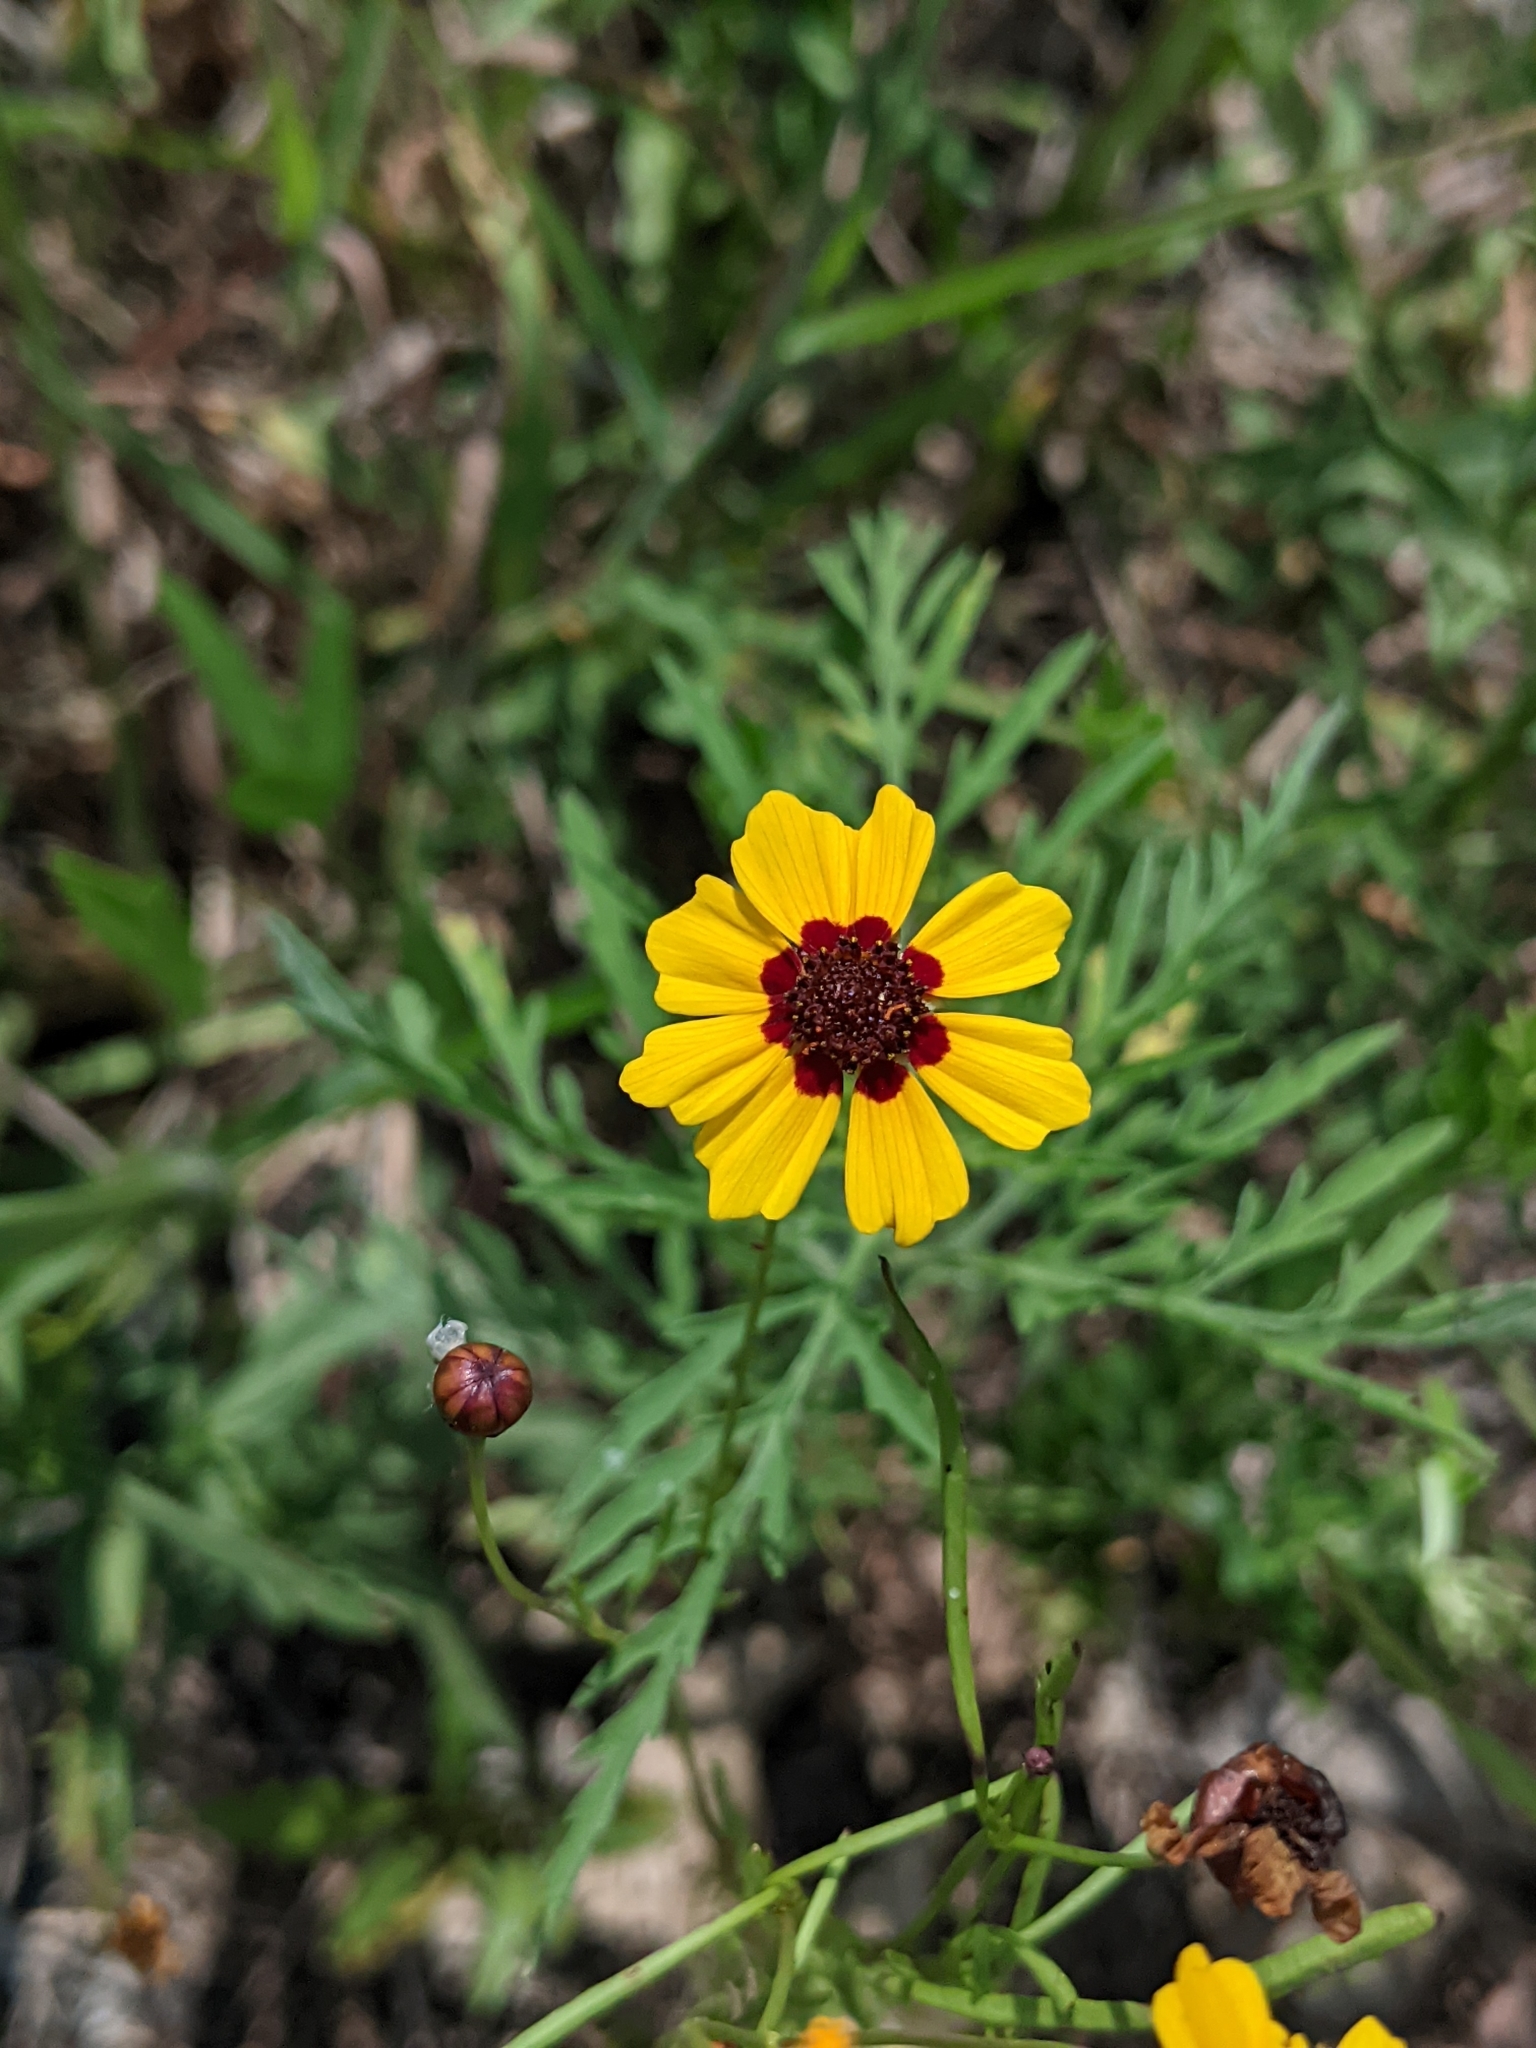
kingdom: Plantae
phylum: Tracheophyta
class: Magnoliopsida
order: Asterales
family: Asteraceae
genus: Coreopsis
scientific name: Coreopsis tinctoria
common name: Garden tickseed
